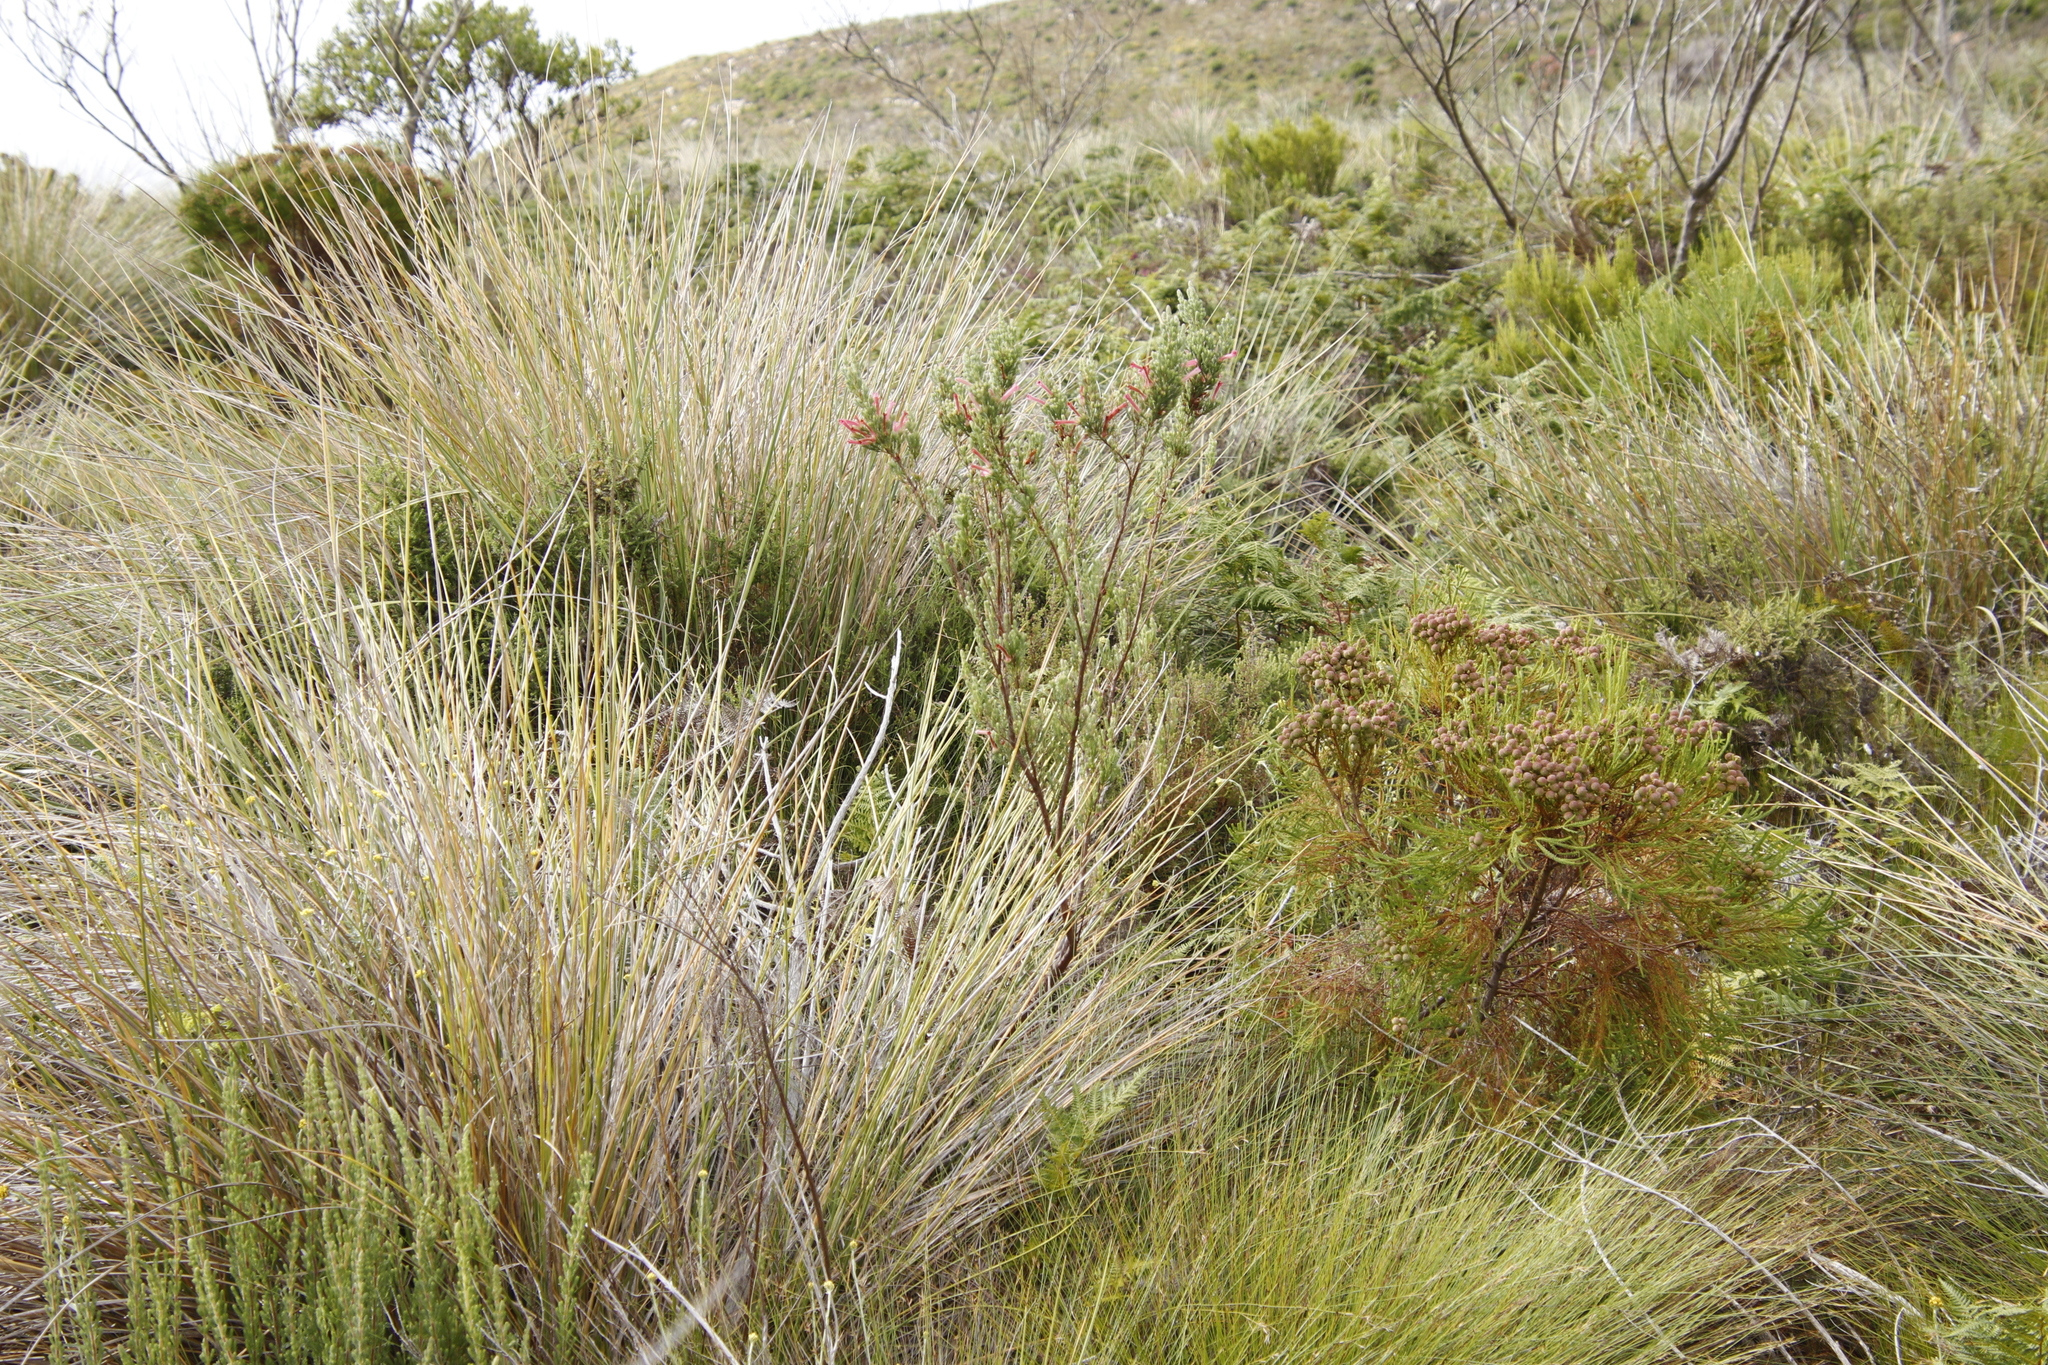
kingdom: Plantae
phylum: Tracheophyta
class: Magnoliopsida
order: Ericales
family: Ericaceae
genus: Erica
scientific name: Erica curviflora
